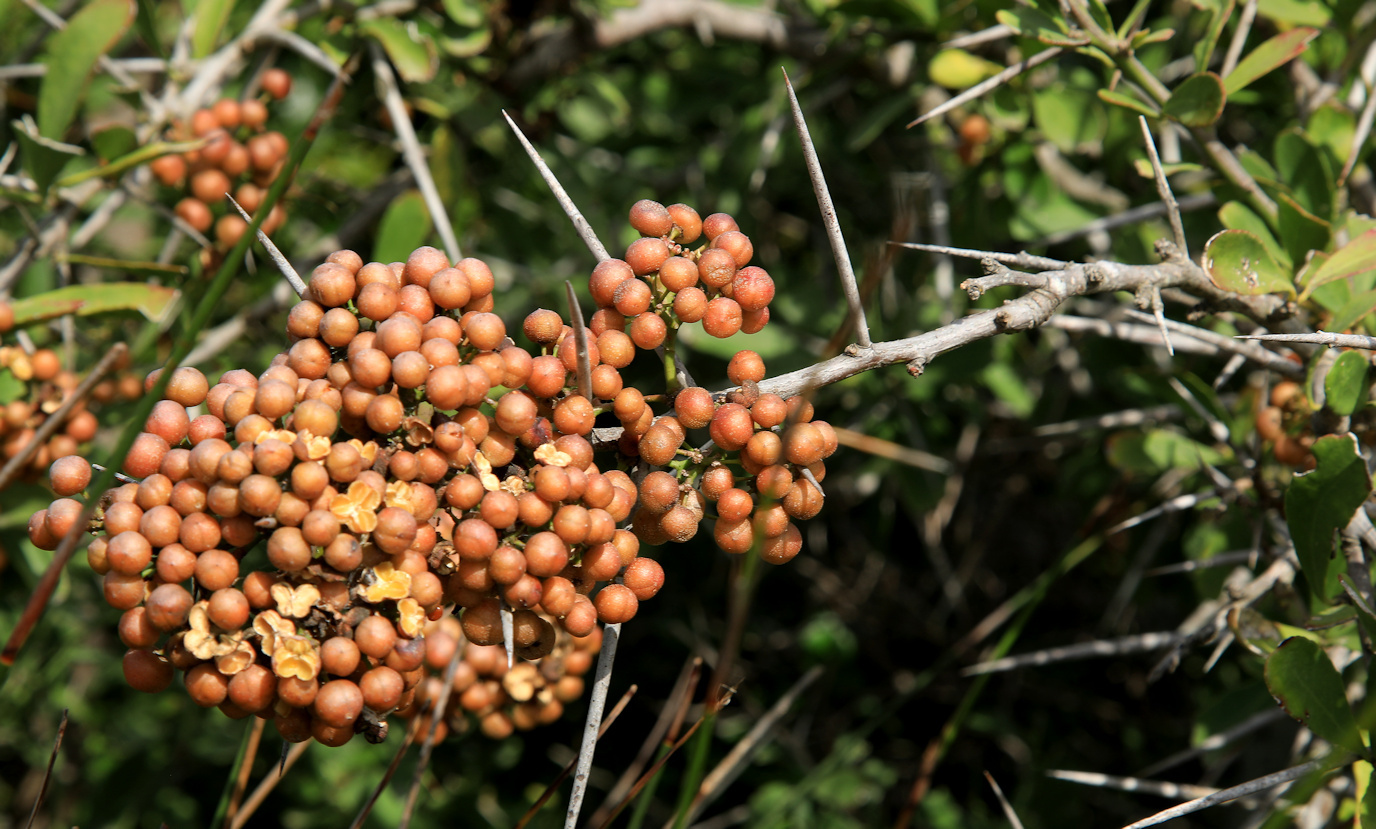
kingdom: Plantae
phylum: Tracheophyta
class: Magnoliopsida
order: Celastrales
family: Celastraceae
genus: Gymnosporia
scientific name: Gymnosporia buxifolia
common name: Common spike-thorn
